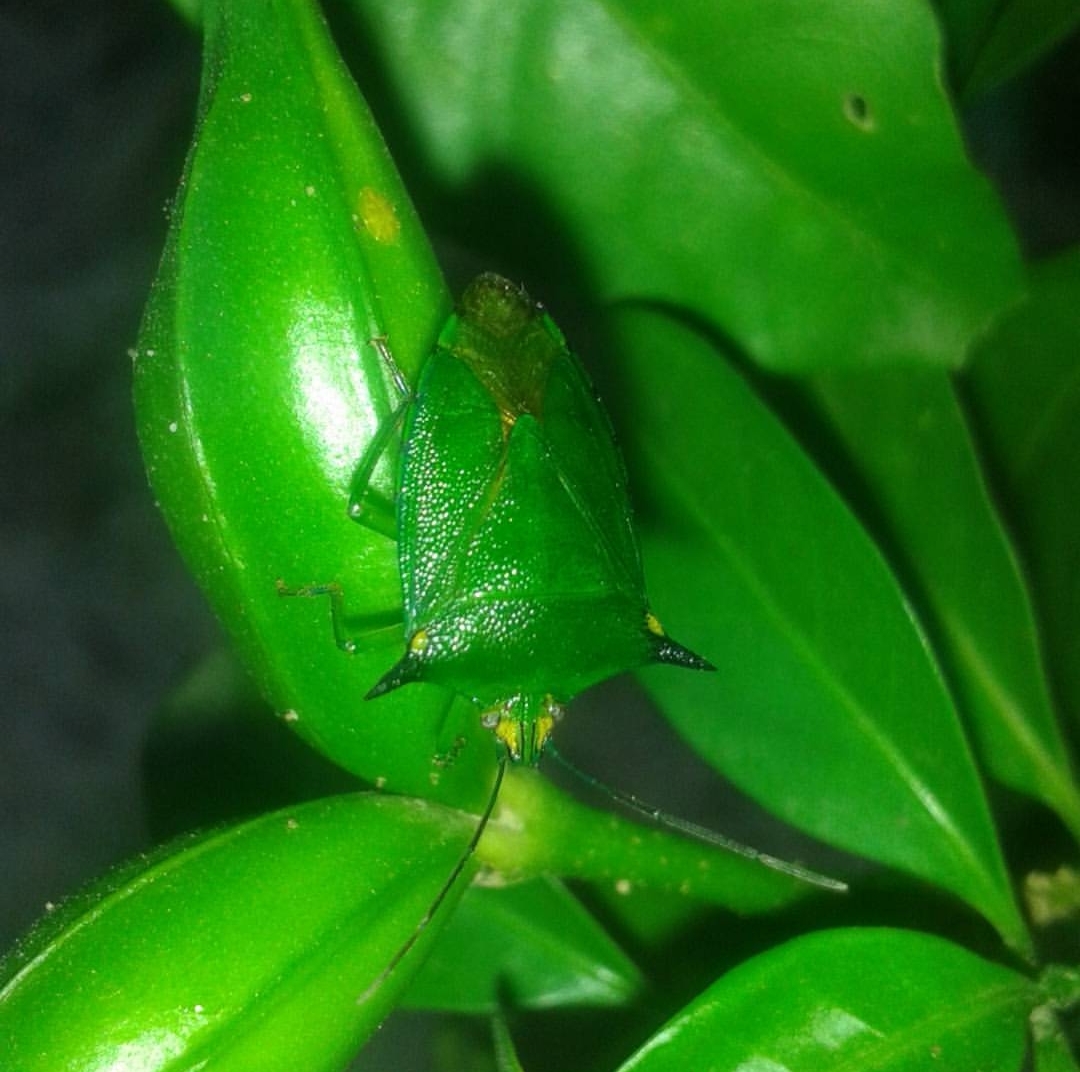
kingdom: Animalia
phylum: Arthropoda
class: Insecta
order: Hemiptera
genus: Sabaeus
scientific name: Sabaeus
